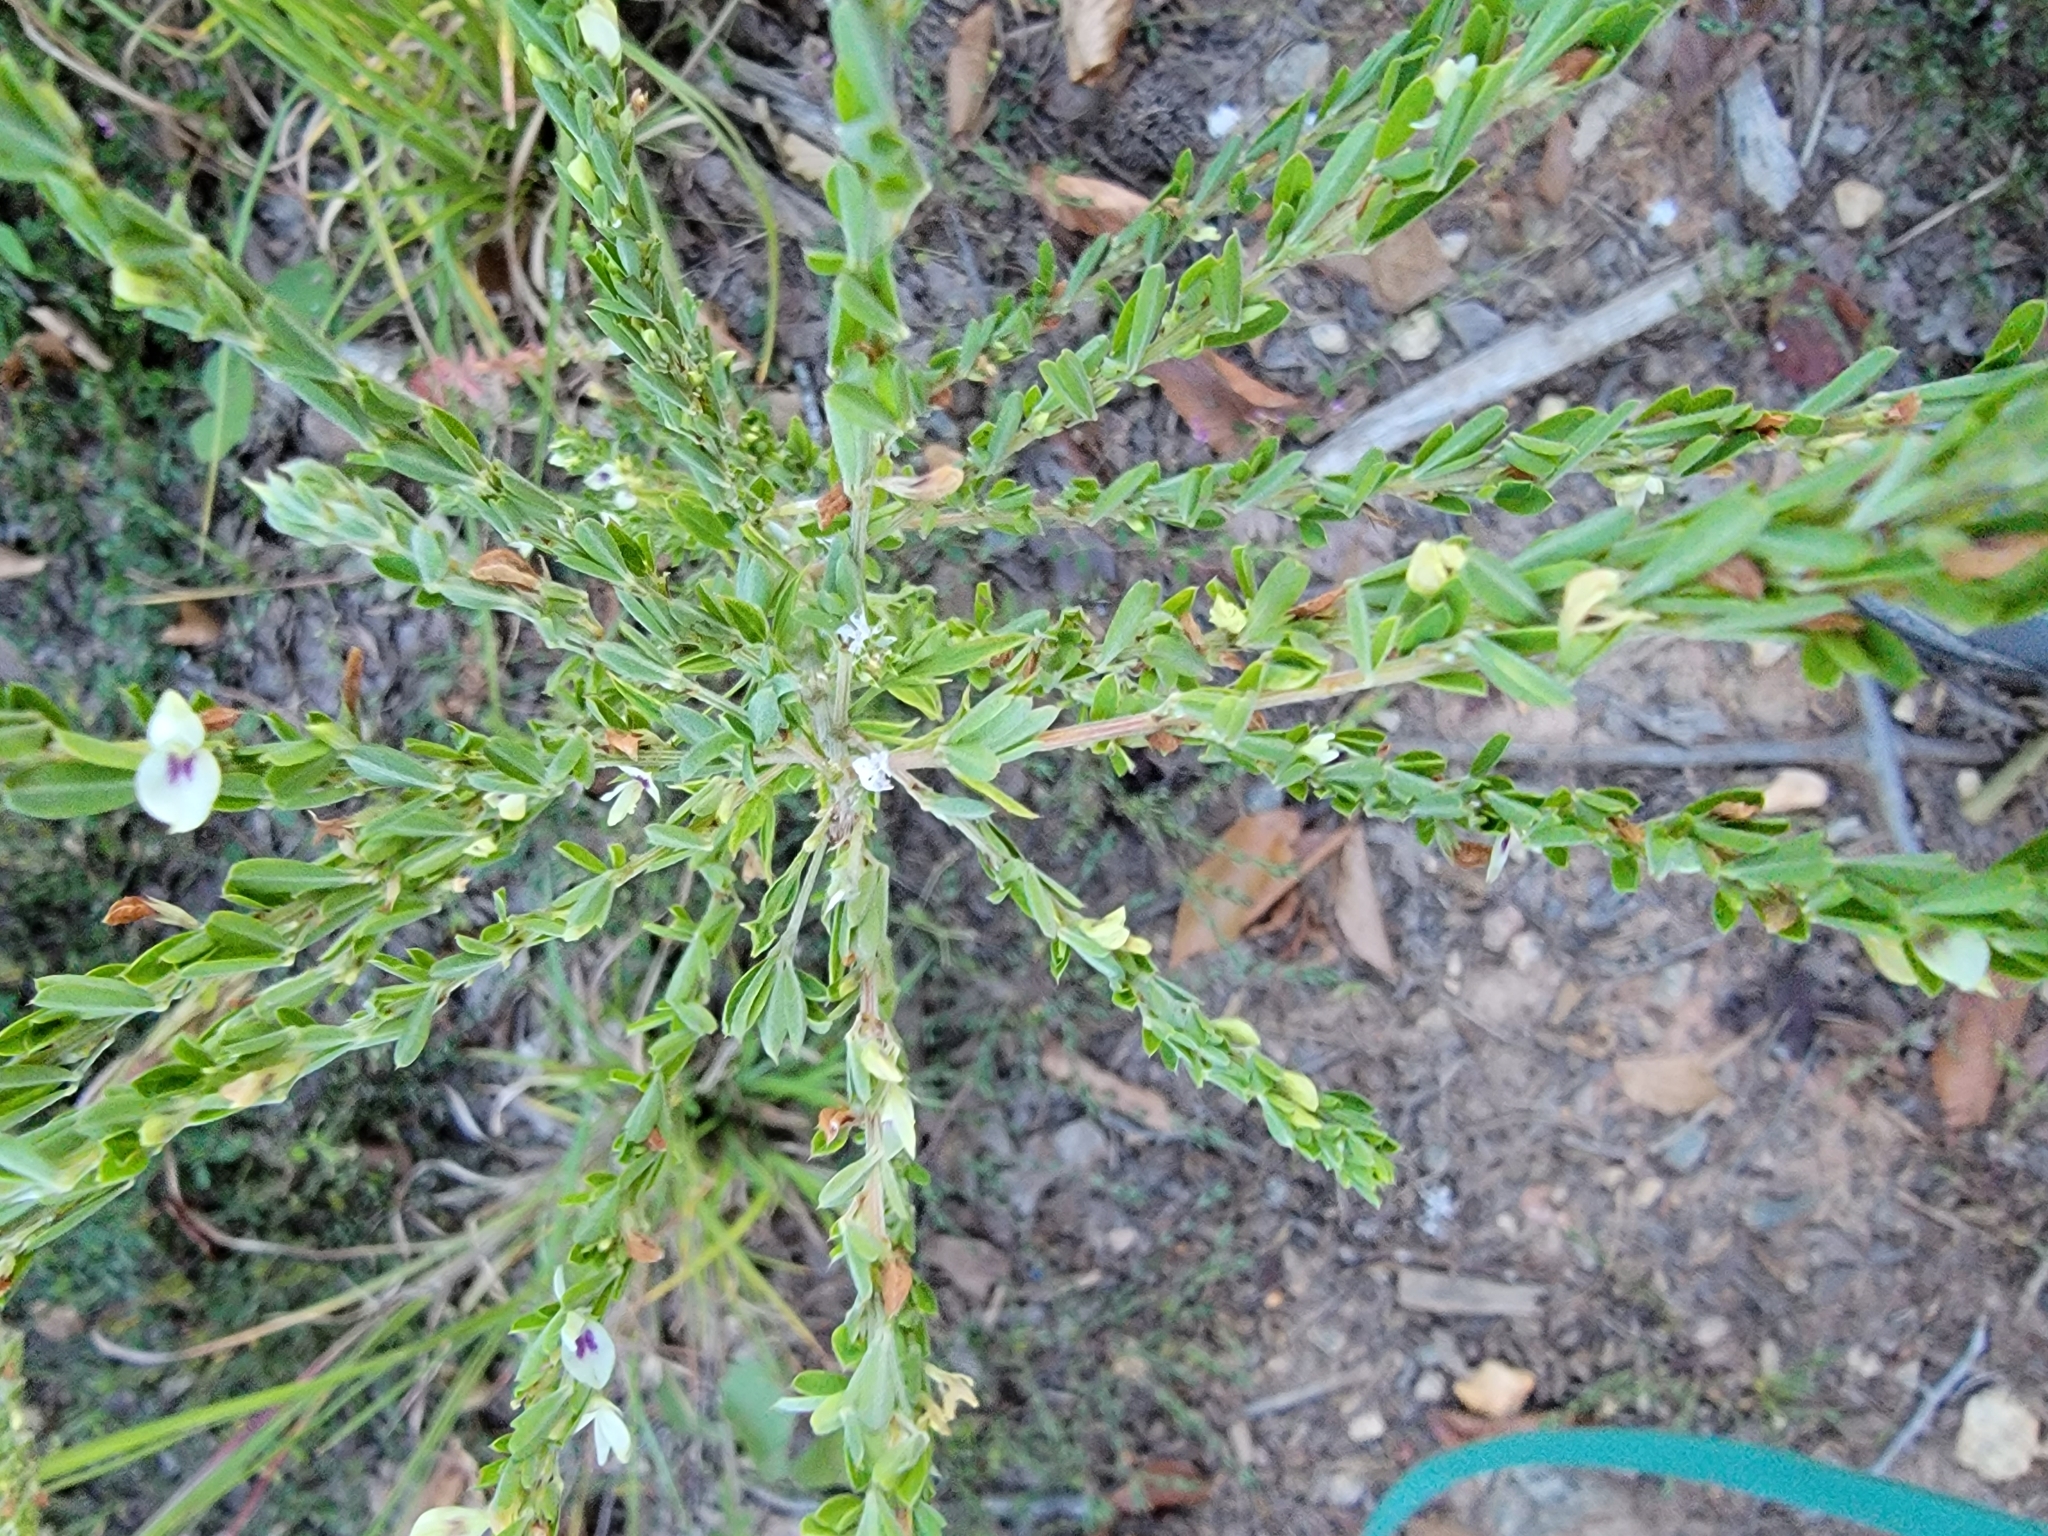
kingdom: Plantae
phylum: Tracheophyta
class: Magnoliopsida
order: Fabales
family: Fabaceae
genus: Lespedeza
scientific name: Lespedeza cuneata
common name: Chinese bush-clover
